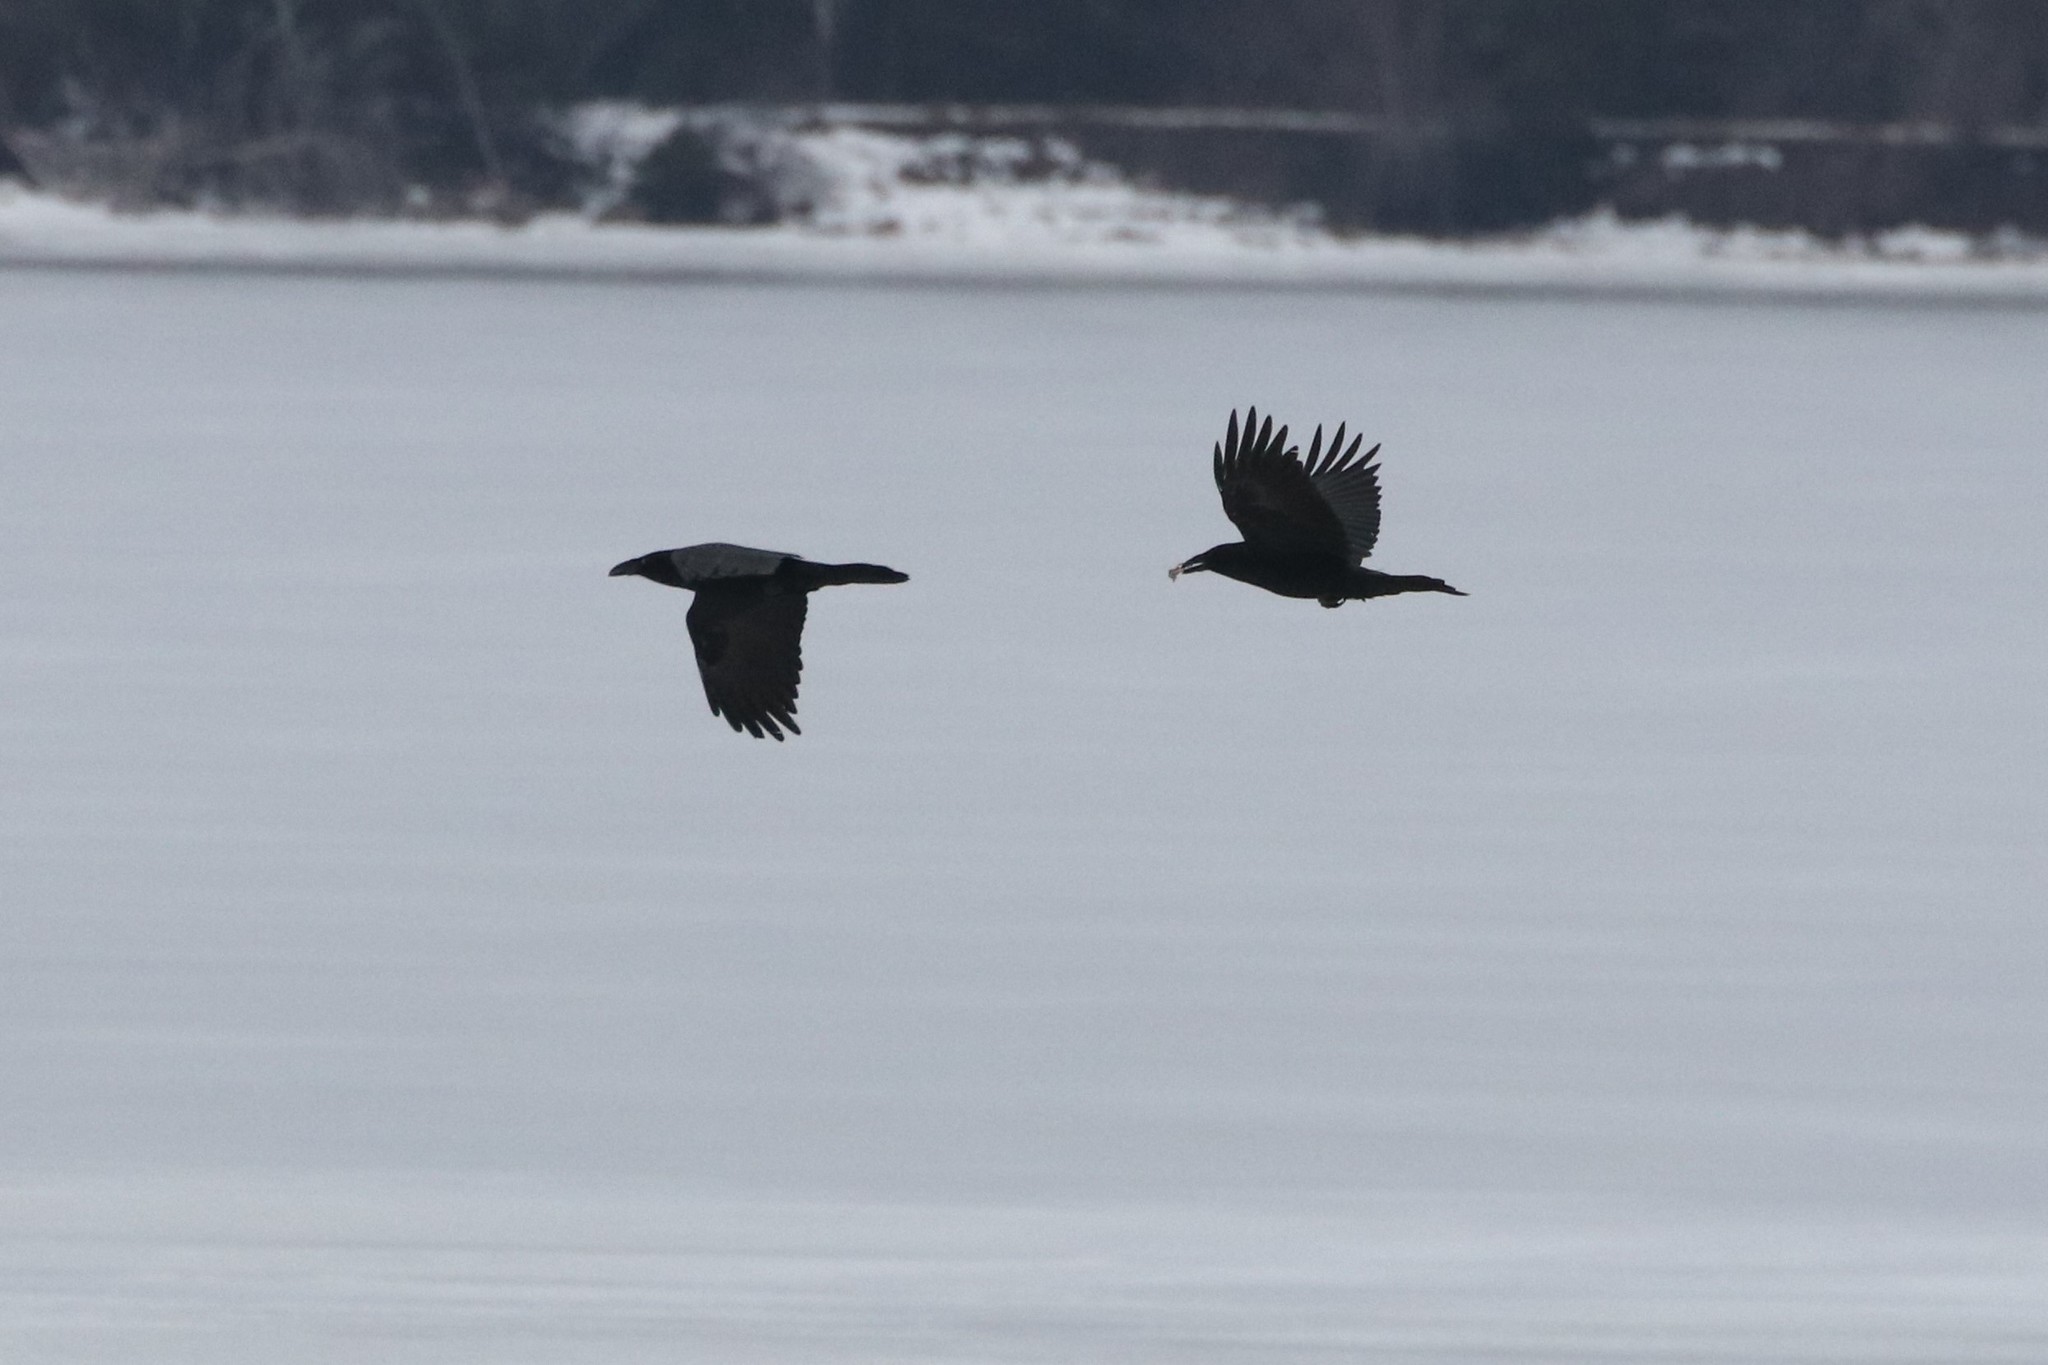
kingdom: Animalia
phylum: Chordata
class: Aves
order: Passeriformes
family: Corvidae
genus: Corvus
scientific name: Corvus corax
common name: Common raven
